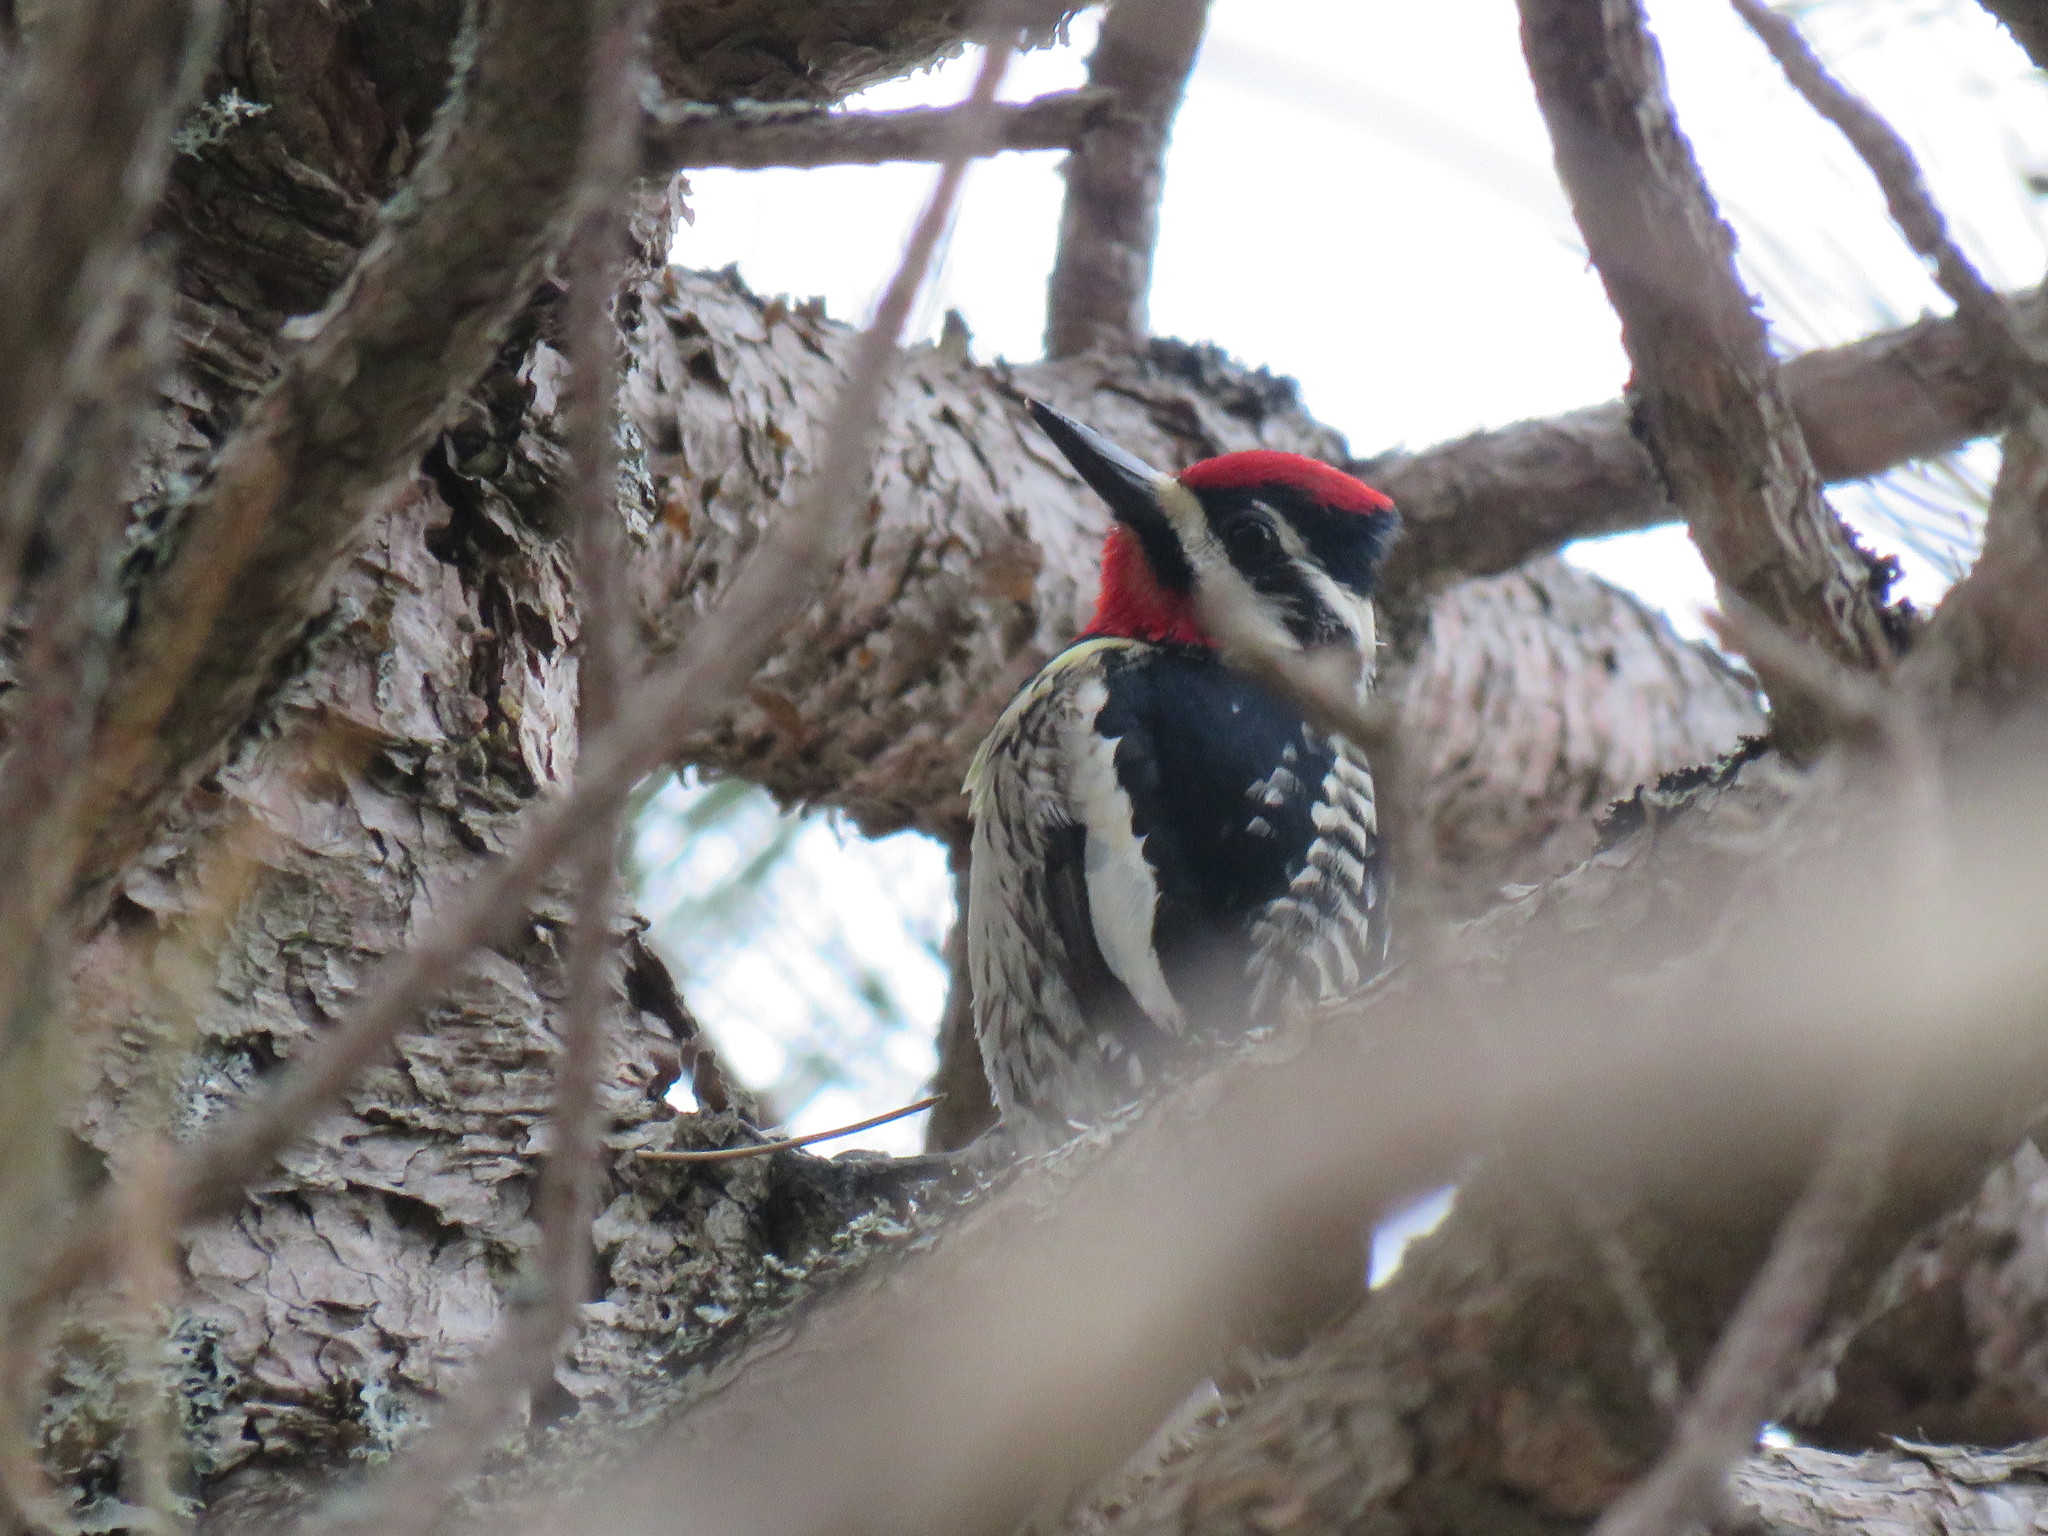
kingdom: Animalia
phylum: Chordata
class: Aves
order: Piciformes
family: Picidae
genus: Sphyrapicus
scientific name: Sphyrapicus varius
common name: Yellow-bellied sapsucker
